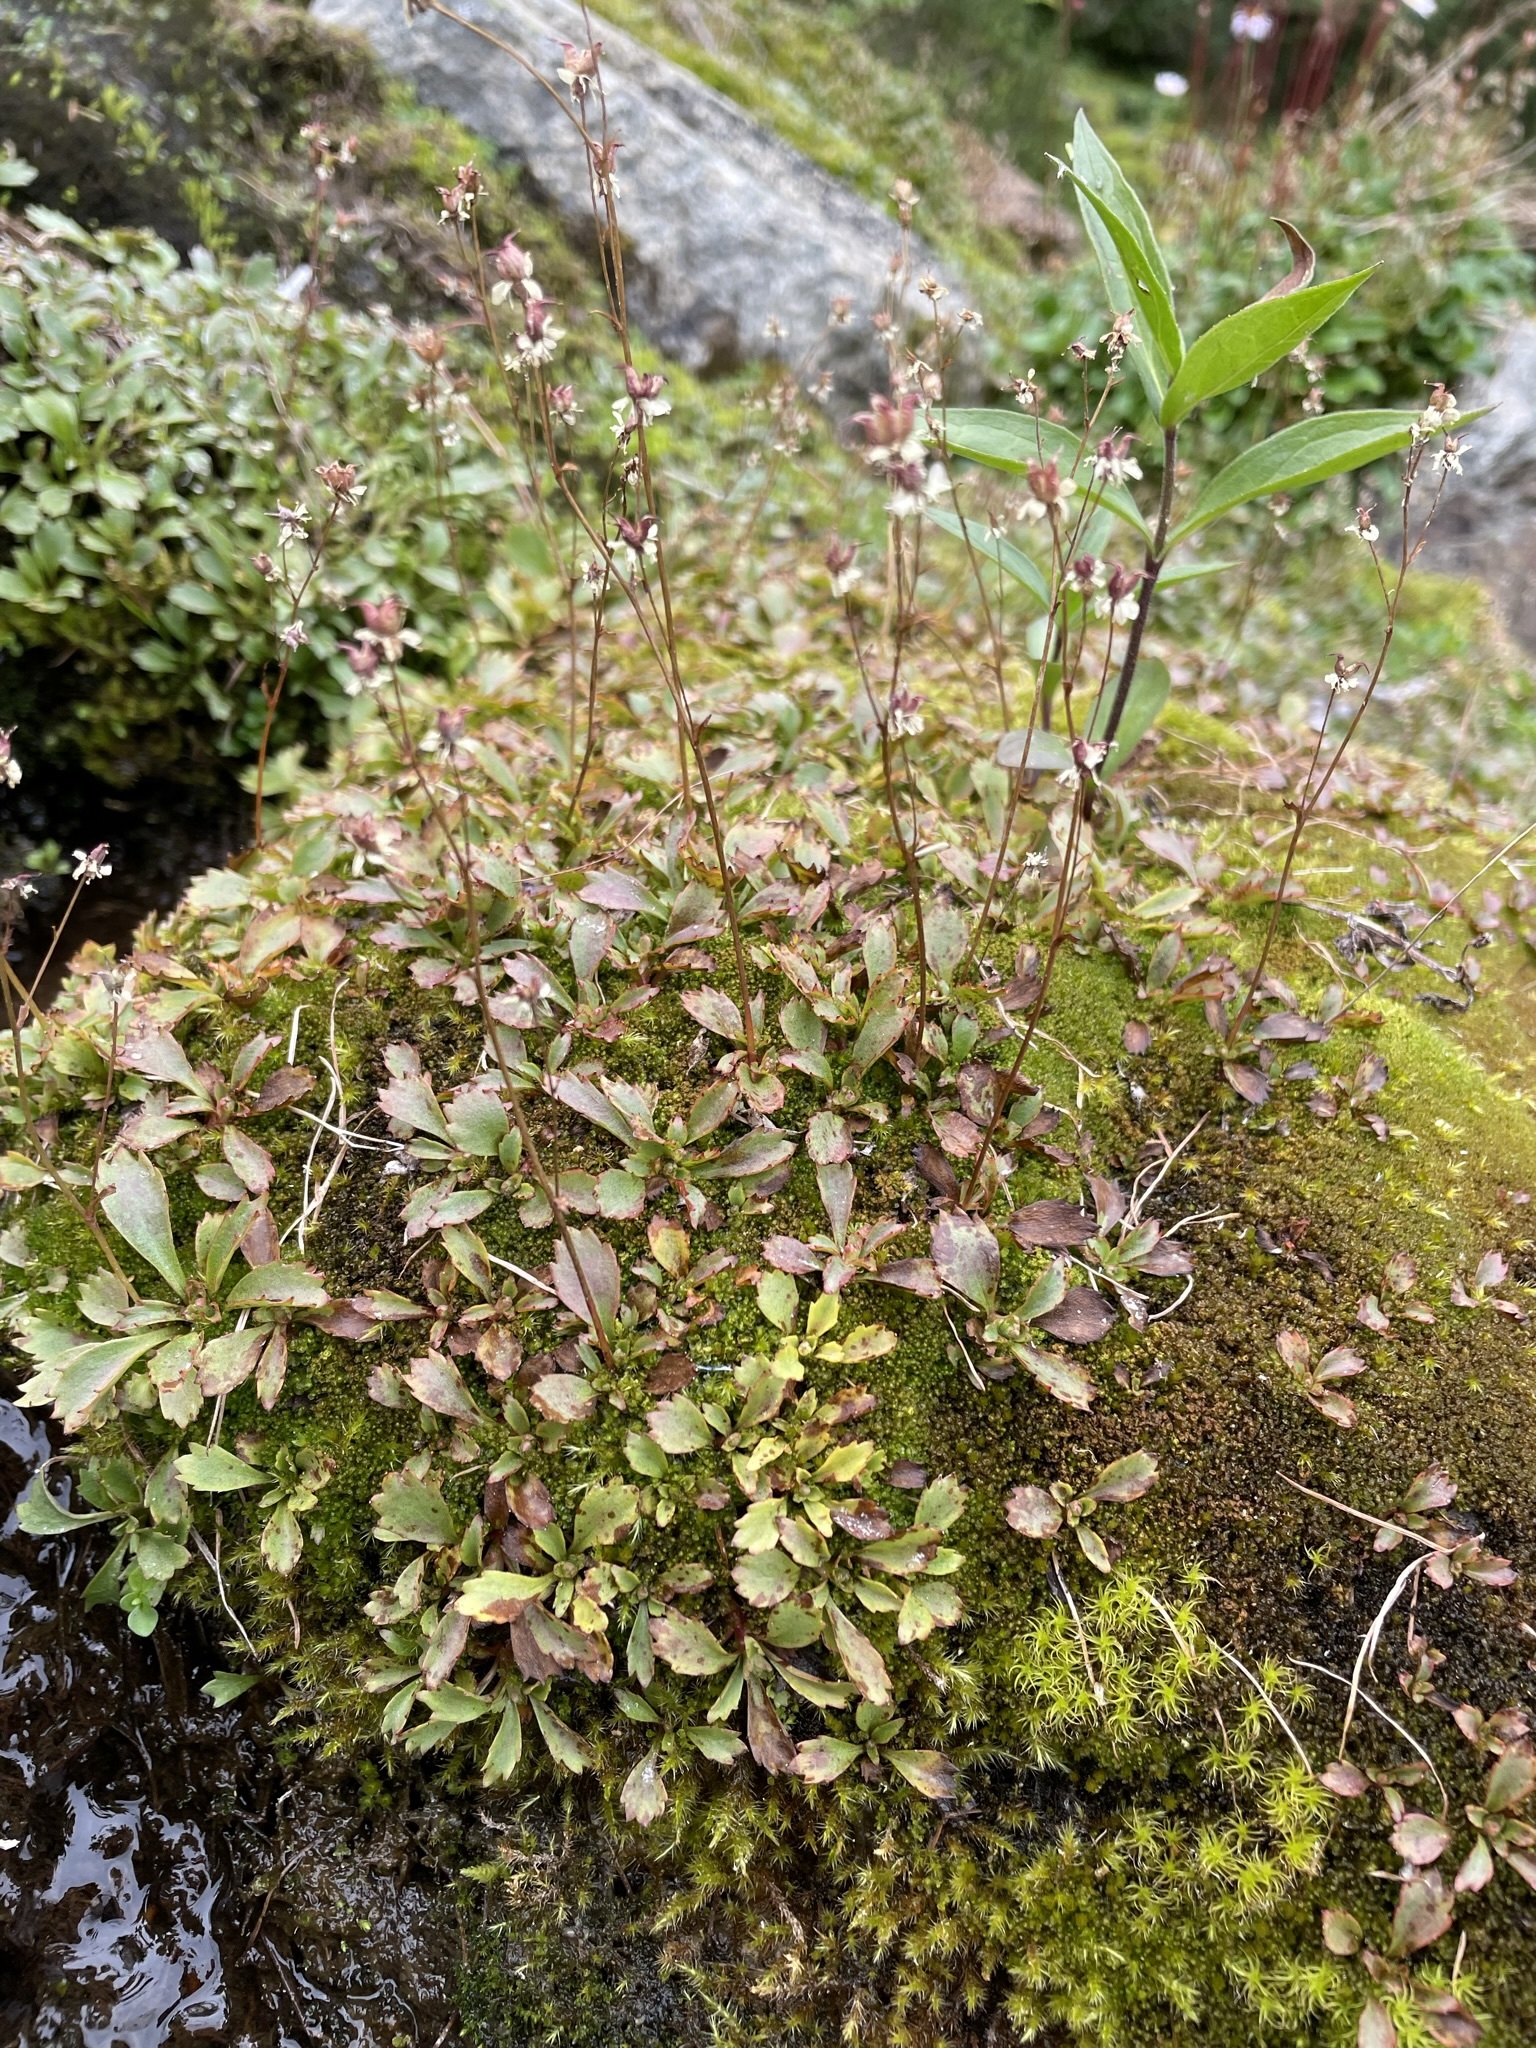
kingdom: Plantae
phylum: Tracheophyta
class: Magnoliopsida
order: Saxifragales
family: Saxifragaceae
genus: Micranthes
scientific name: Micranthes lyallii
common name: Lyall's saxifrage
